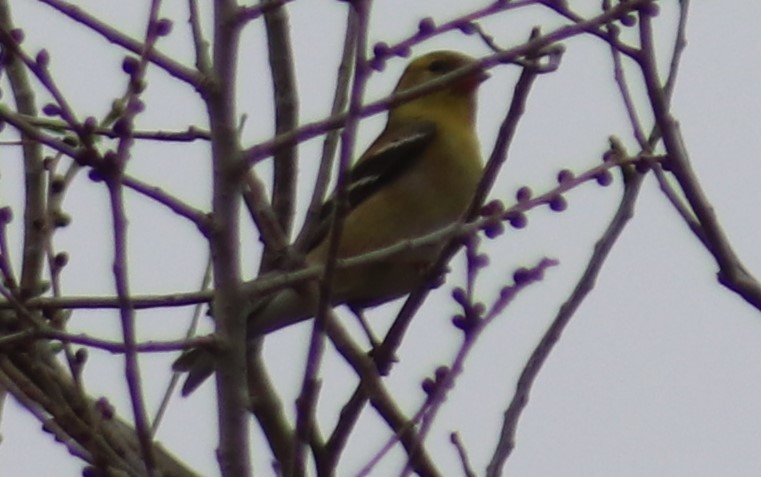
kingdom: Animalia
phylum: Chordata
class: Aves
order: Passeriformes
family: Fringillidae
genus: Spinus
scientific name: Spinus tristis
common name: American goldfinch
